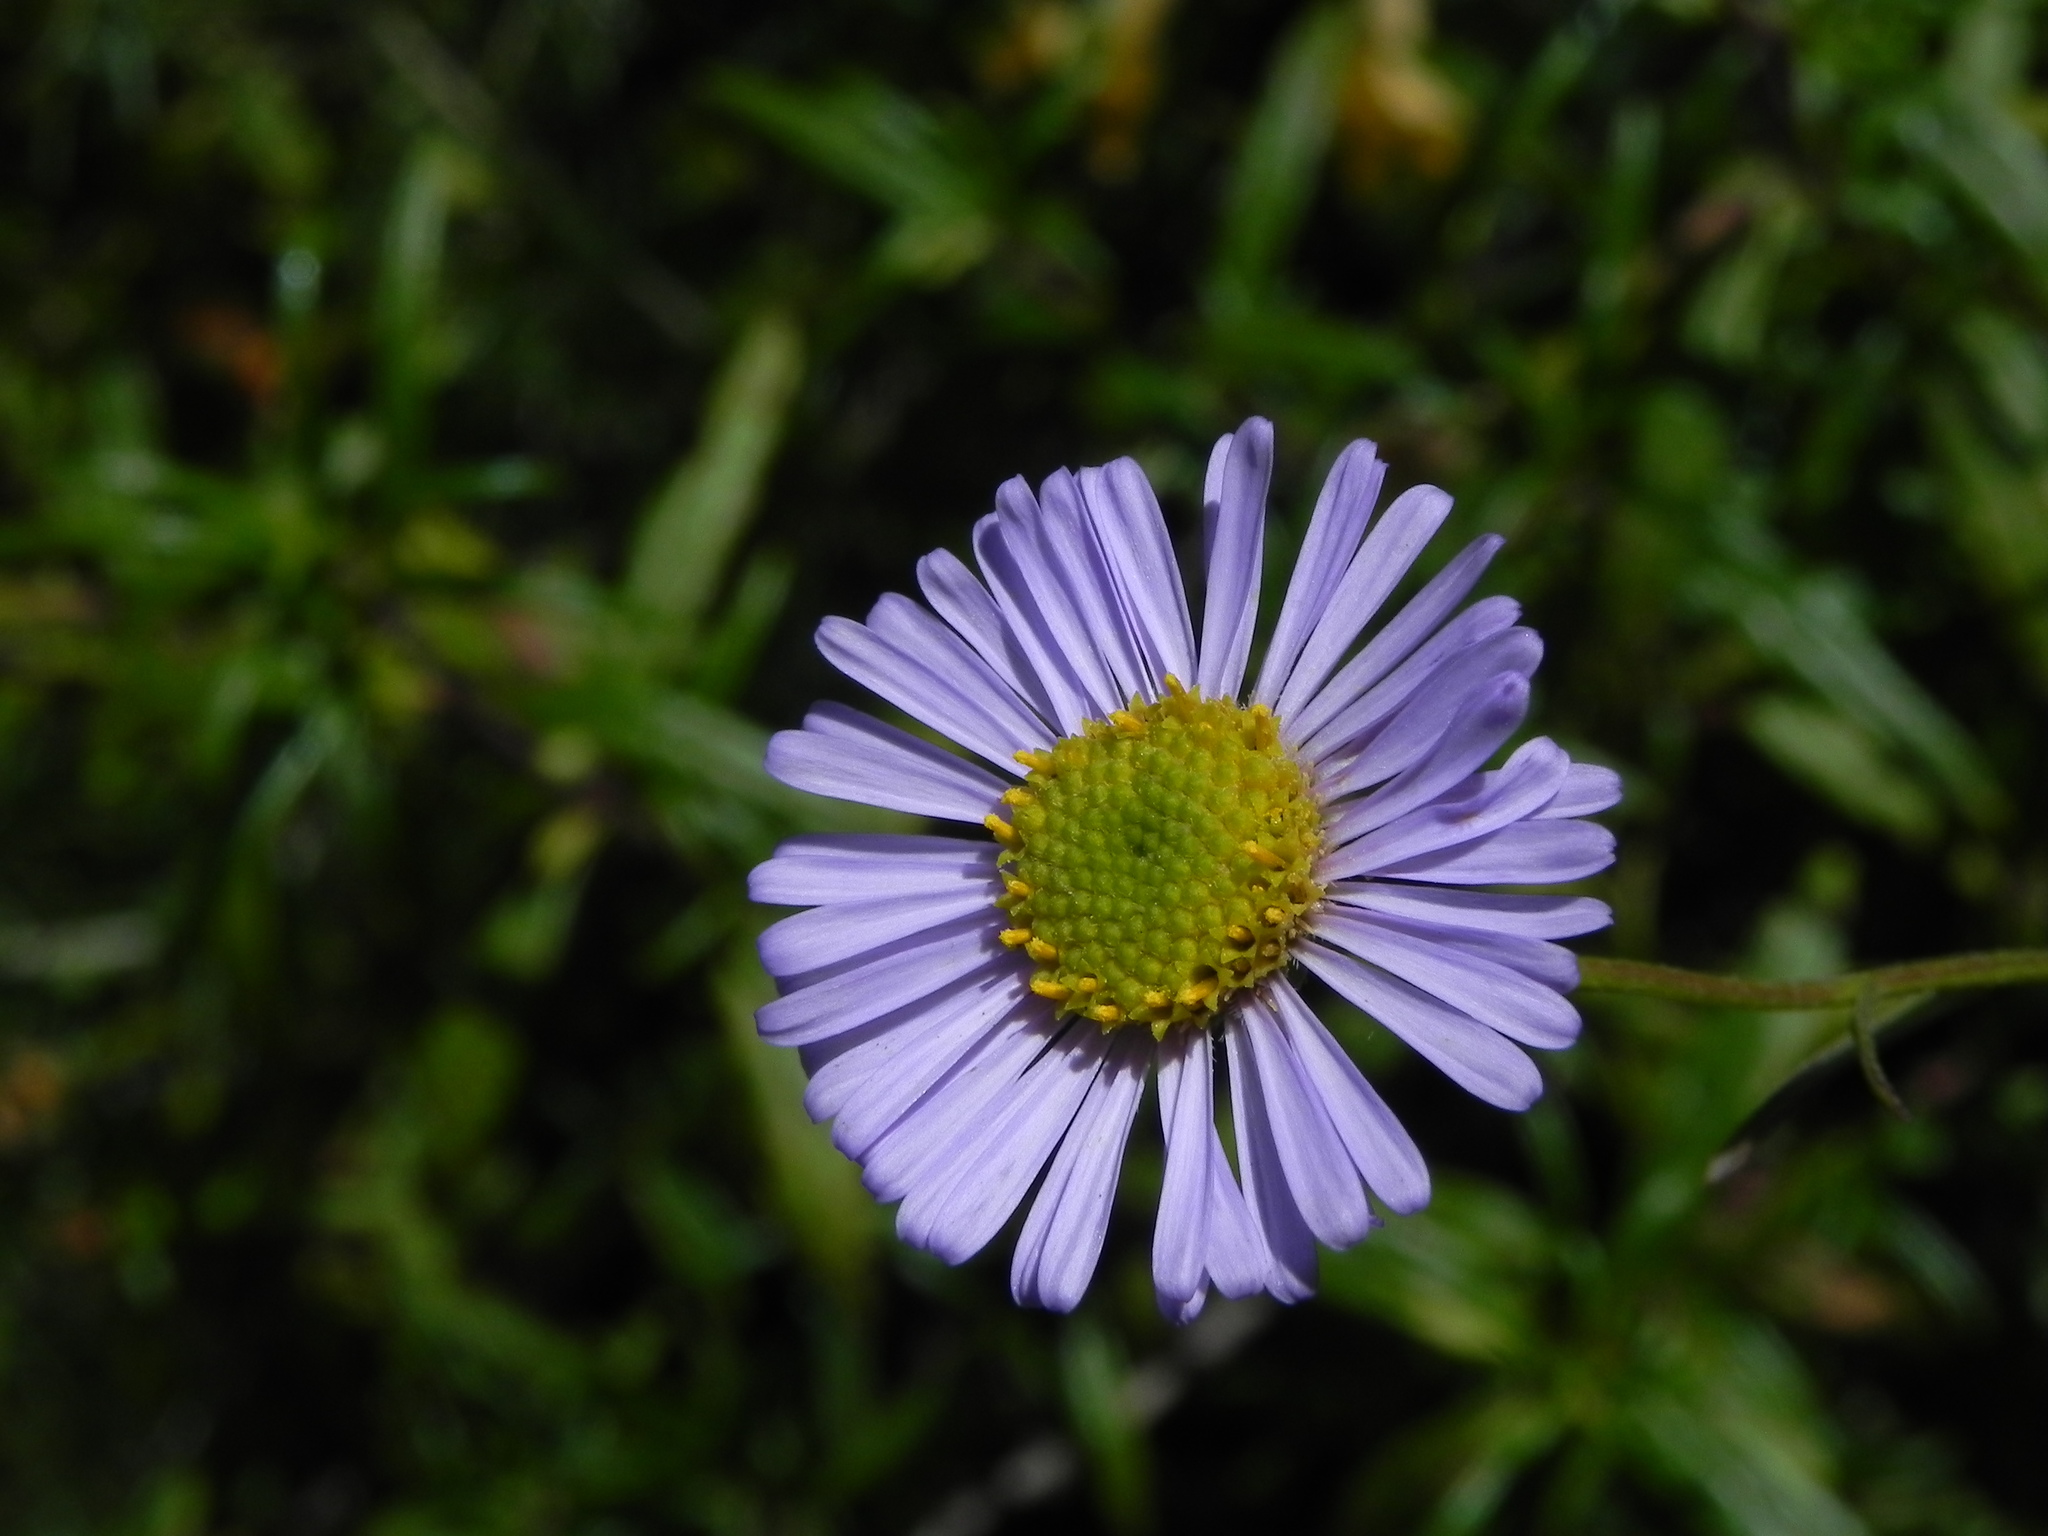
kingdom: Plantae
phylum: Tracheophyta
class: Magnoliopsida
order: Asterales
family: Asteraceae
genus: Erigeron
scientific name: Erigeron foliosus
